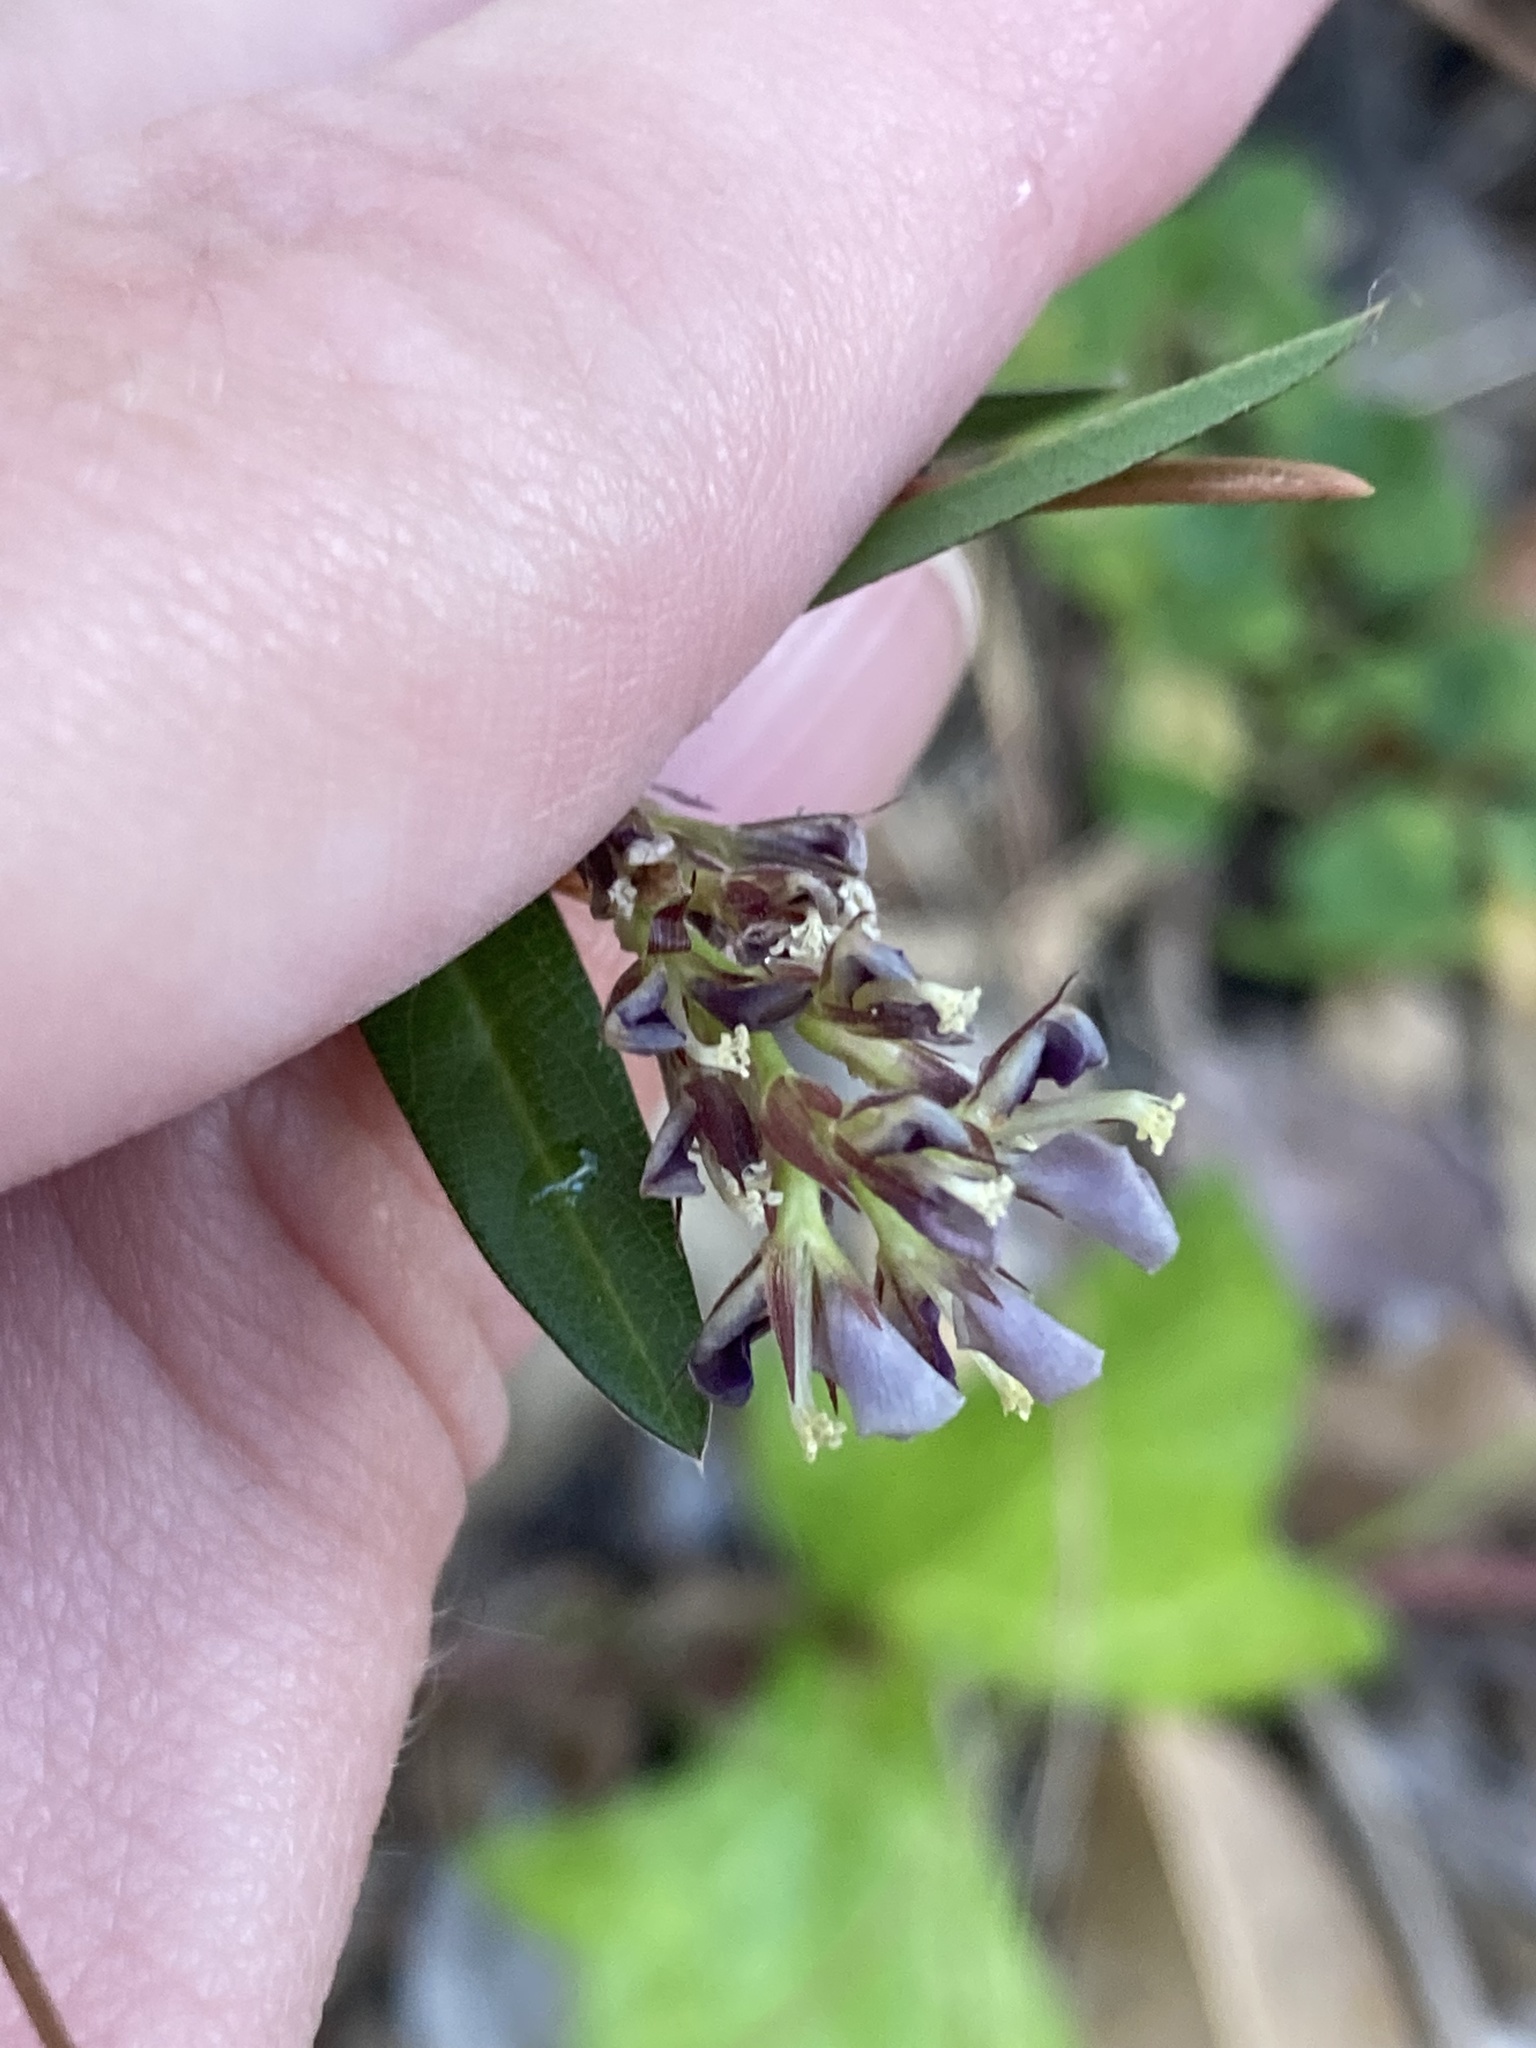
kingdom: Plantae
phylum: Tracheophyta
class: Magnoliopsida
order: Fabales
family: Fabaceae
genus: Alysicarpus
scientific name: Alysicarpus vaginalis
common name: White moneywort
